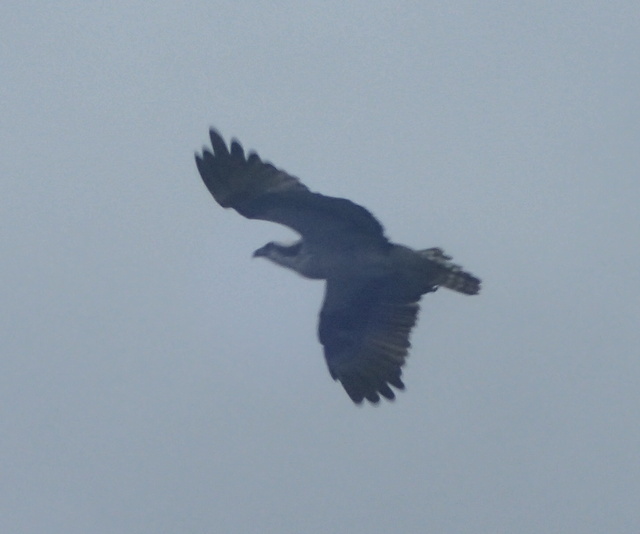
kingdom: Animalia
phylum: Chordata
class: Aves
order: Accipitriformes
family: Pandionidae
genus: Pandion
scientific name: Pandion haliaetus
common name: Osprey
